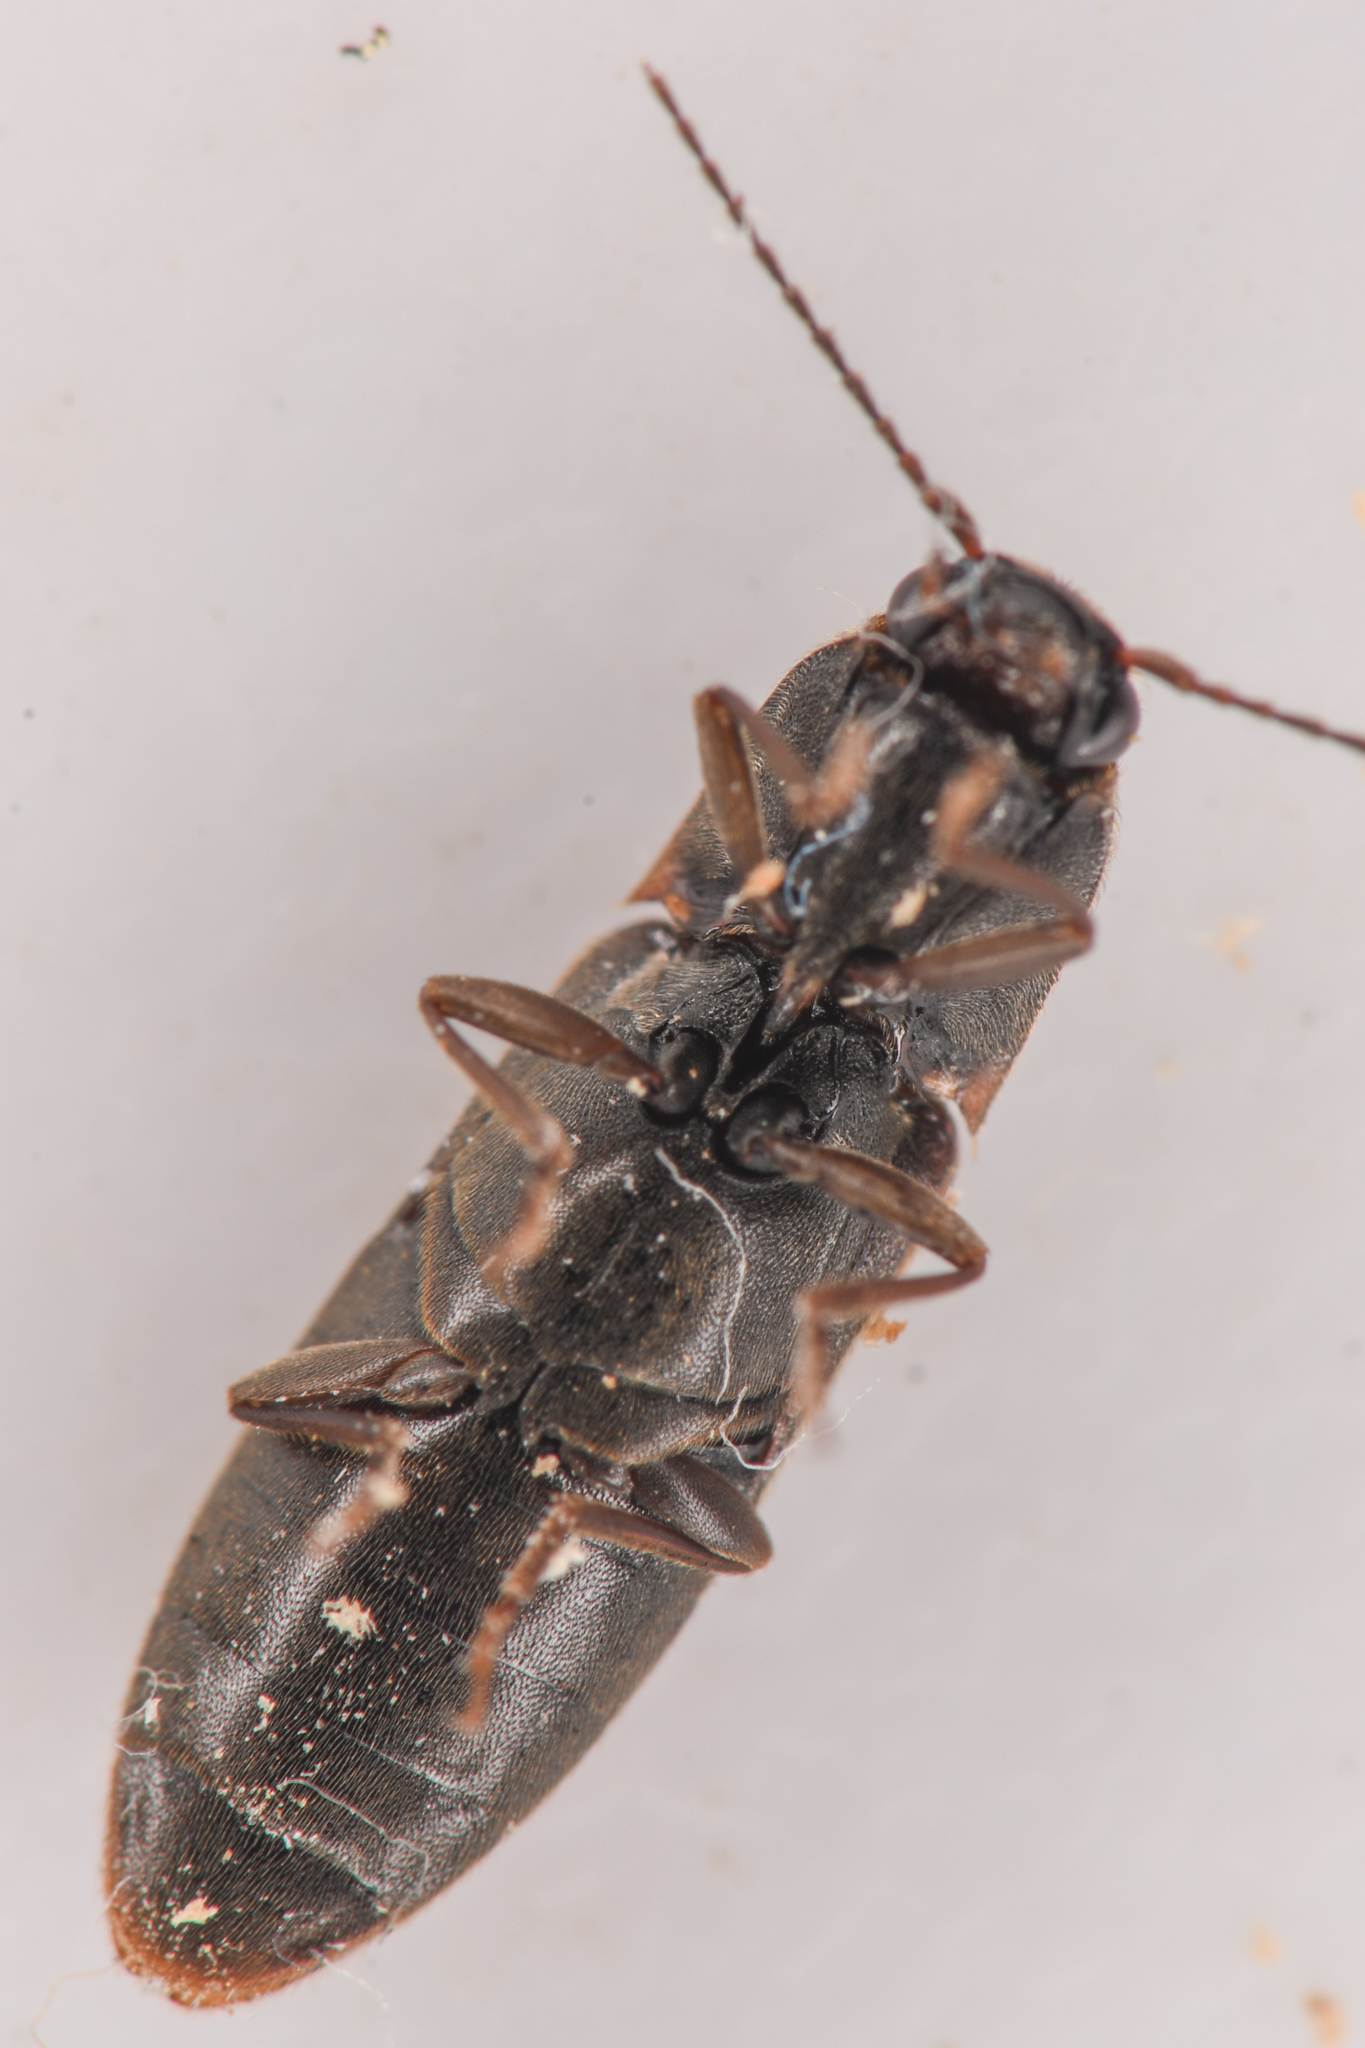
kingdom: Animalia
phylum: Arthropoda
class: Insecta
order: Coleoptera
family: Elateridae
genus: Dalopius
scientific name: Dalopius
